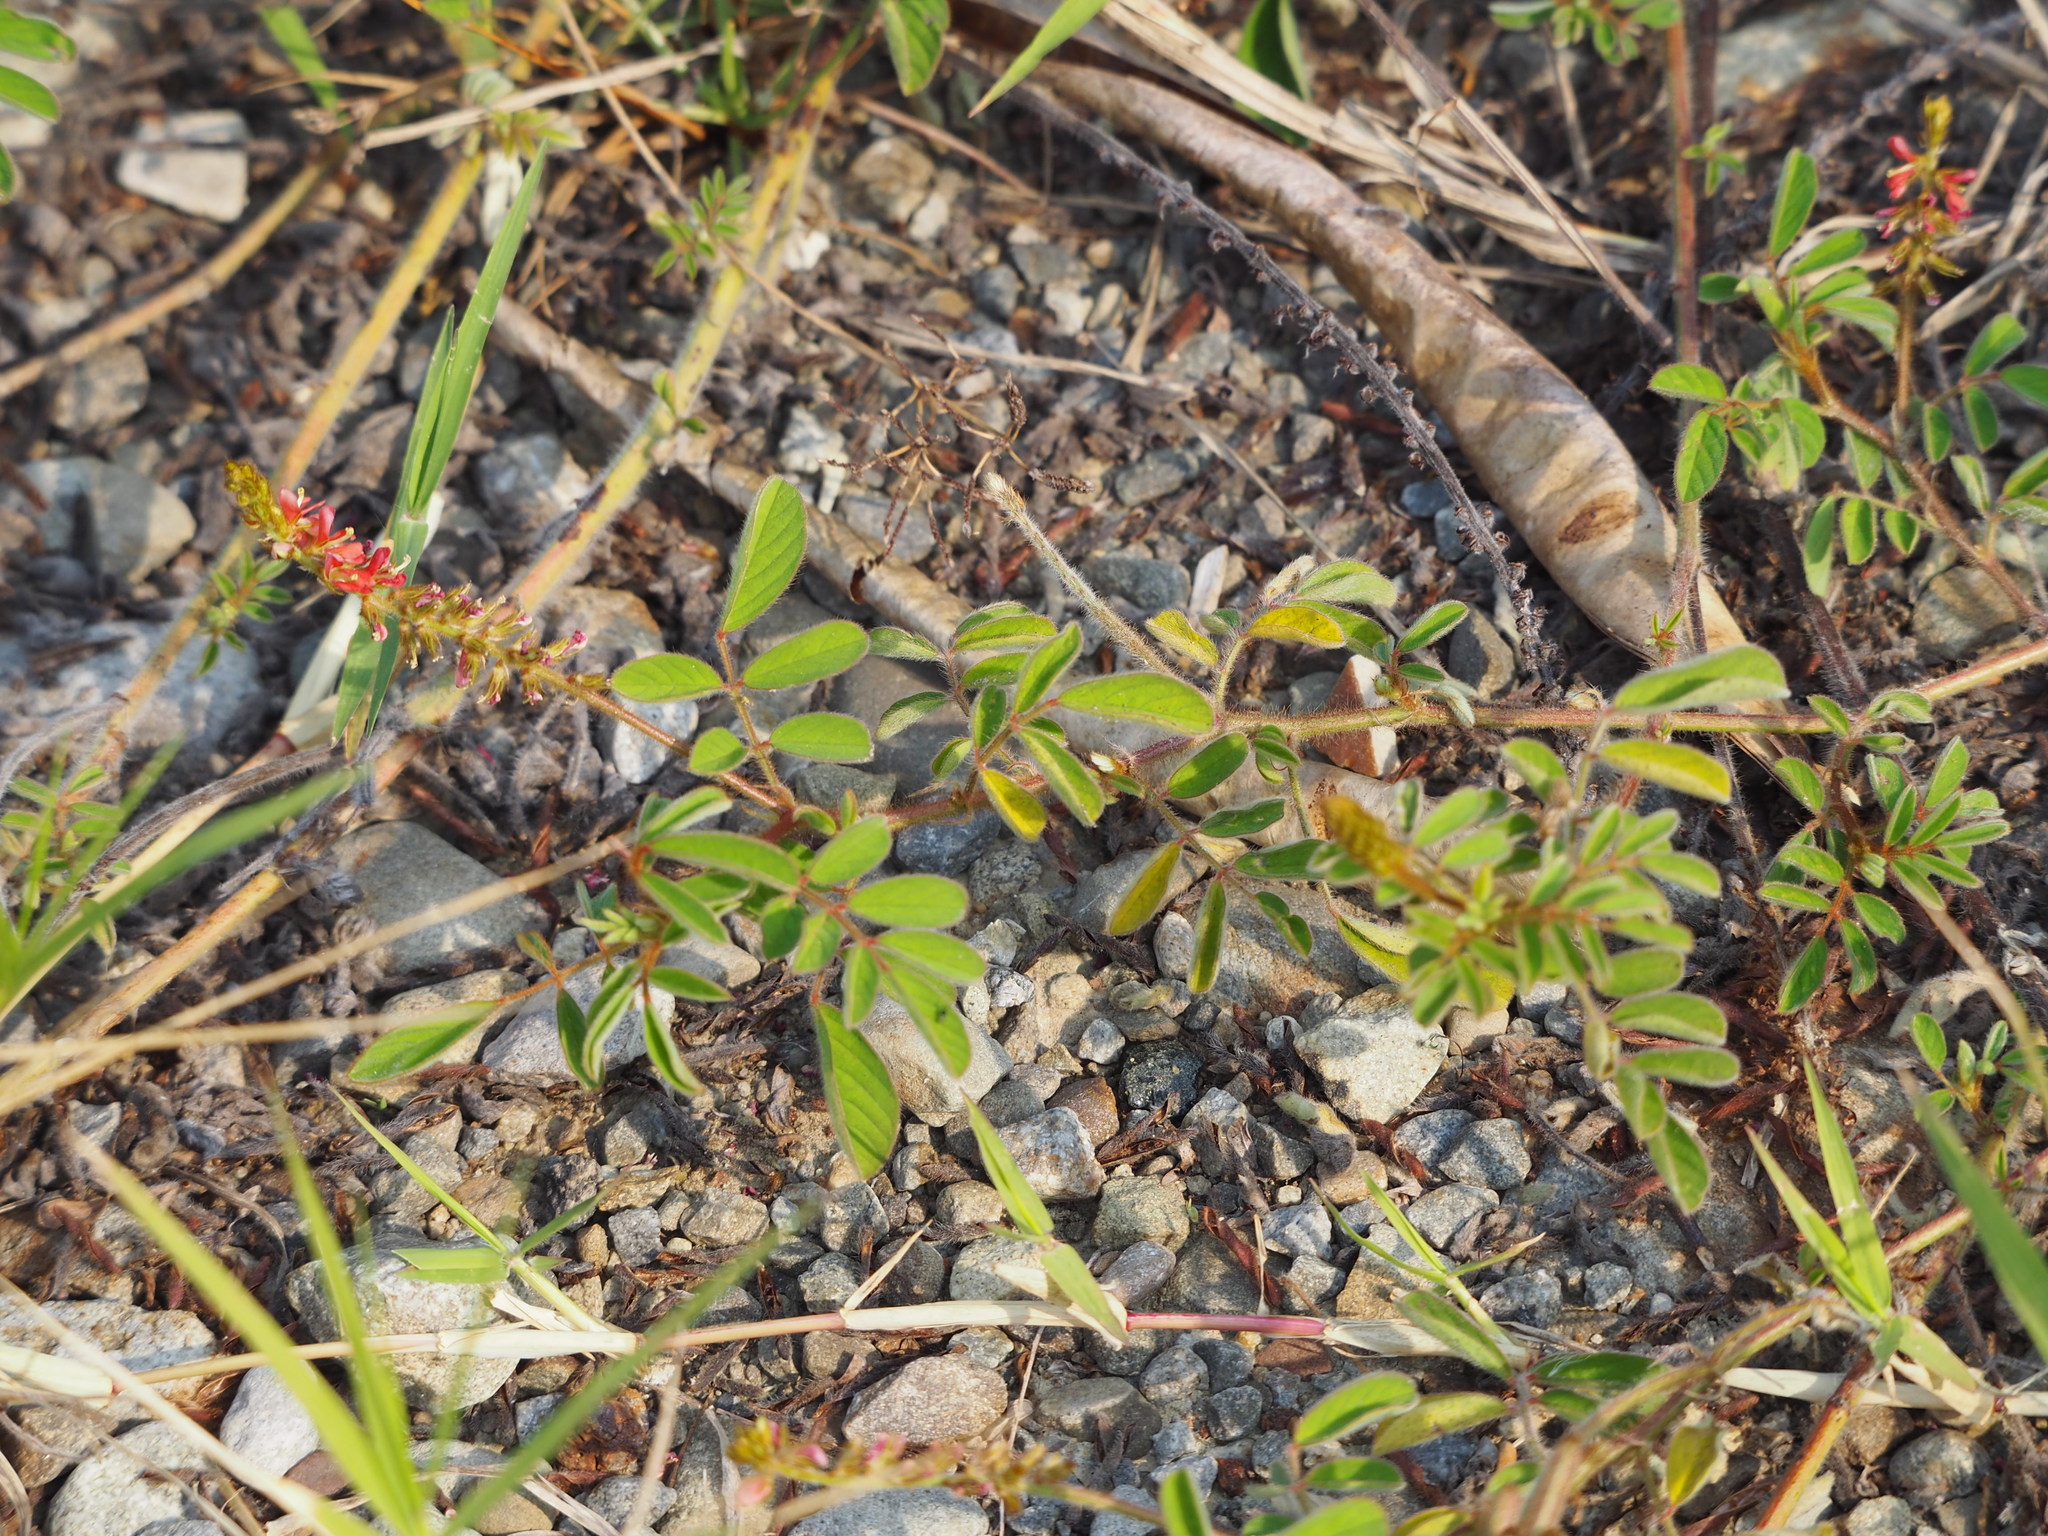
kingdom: Plantae
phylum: Tracheophyta
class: Magnoliopsida
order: Fabales
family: Fabaceae
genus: Indigofera
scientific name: Indigofera hirsuta
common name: Hairy indigo
